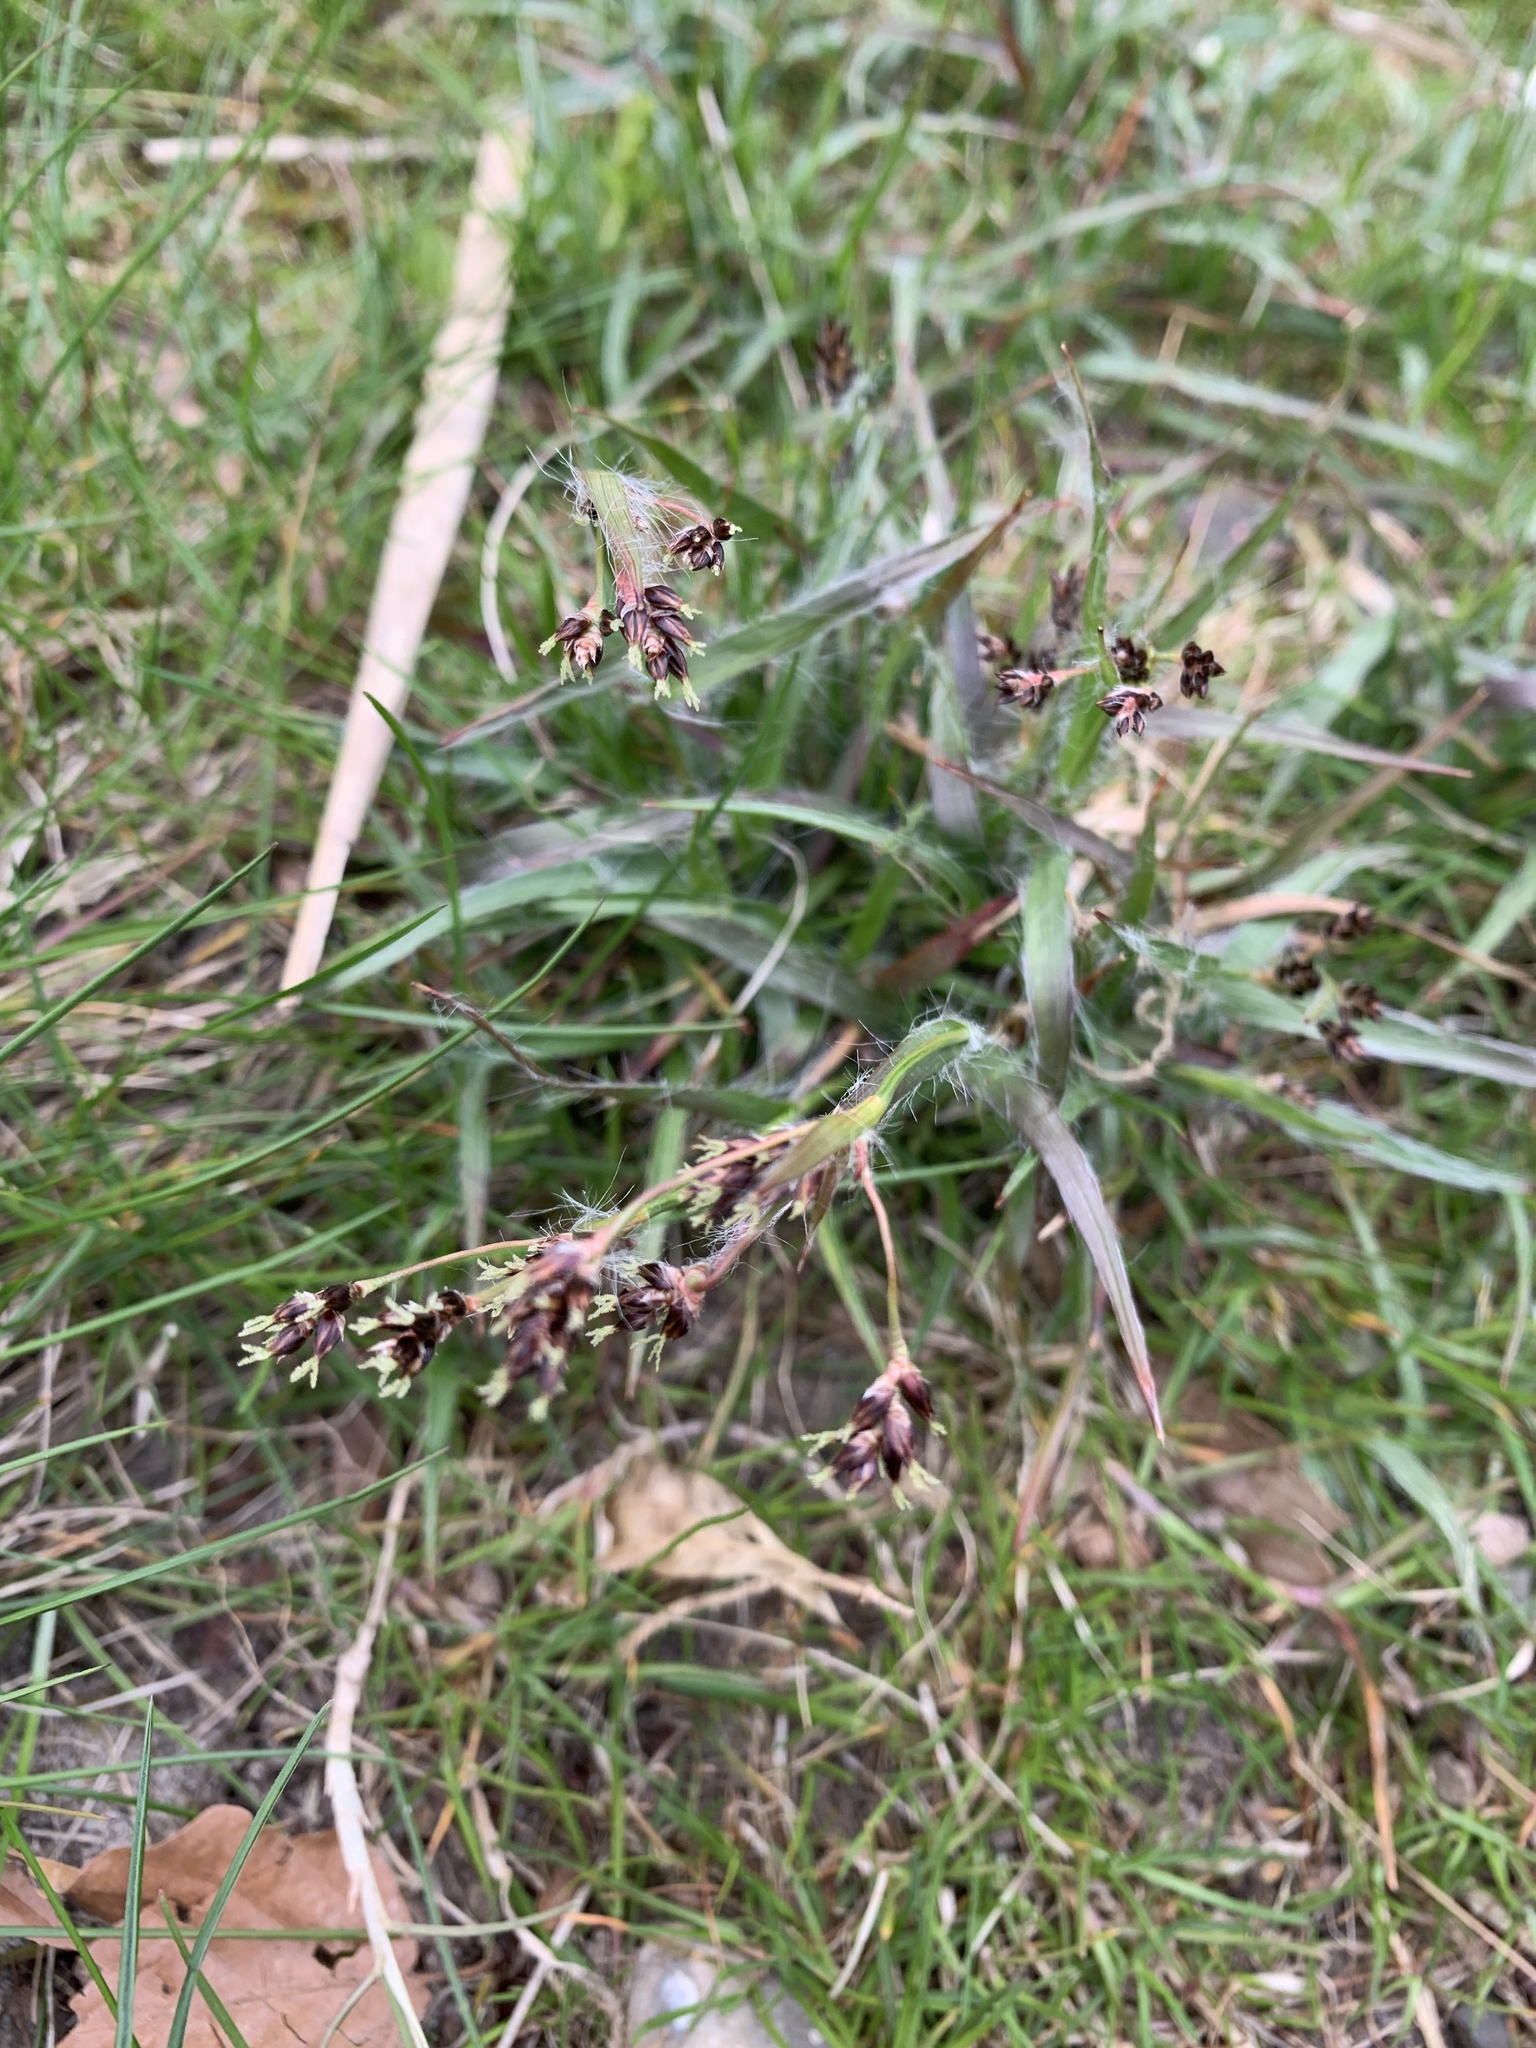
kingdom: Plantae
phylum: Tracheophyta
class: Liliopsida
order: Poales
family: Juncaceae
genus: Luzula
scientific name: Luzula campestris
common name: Field wood-rush
